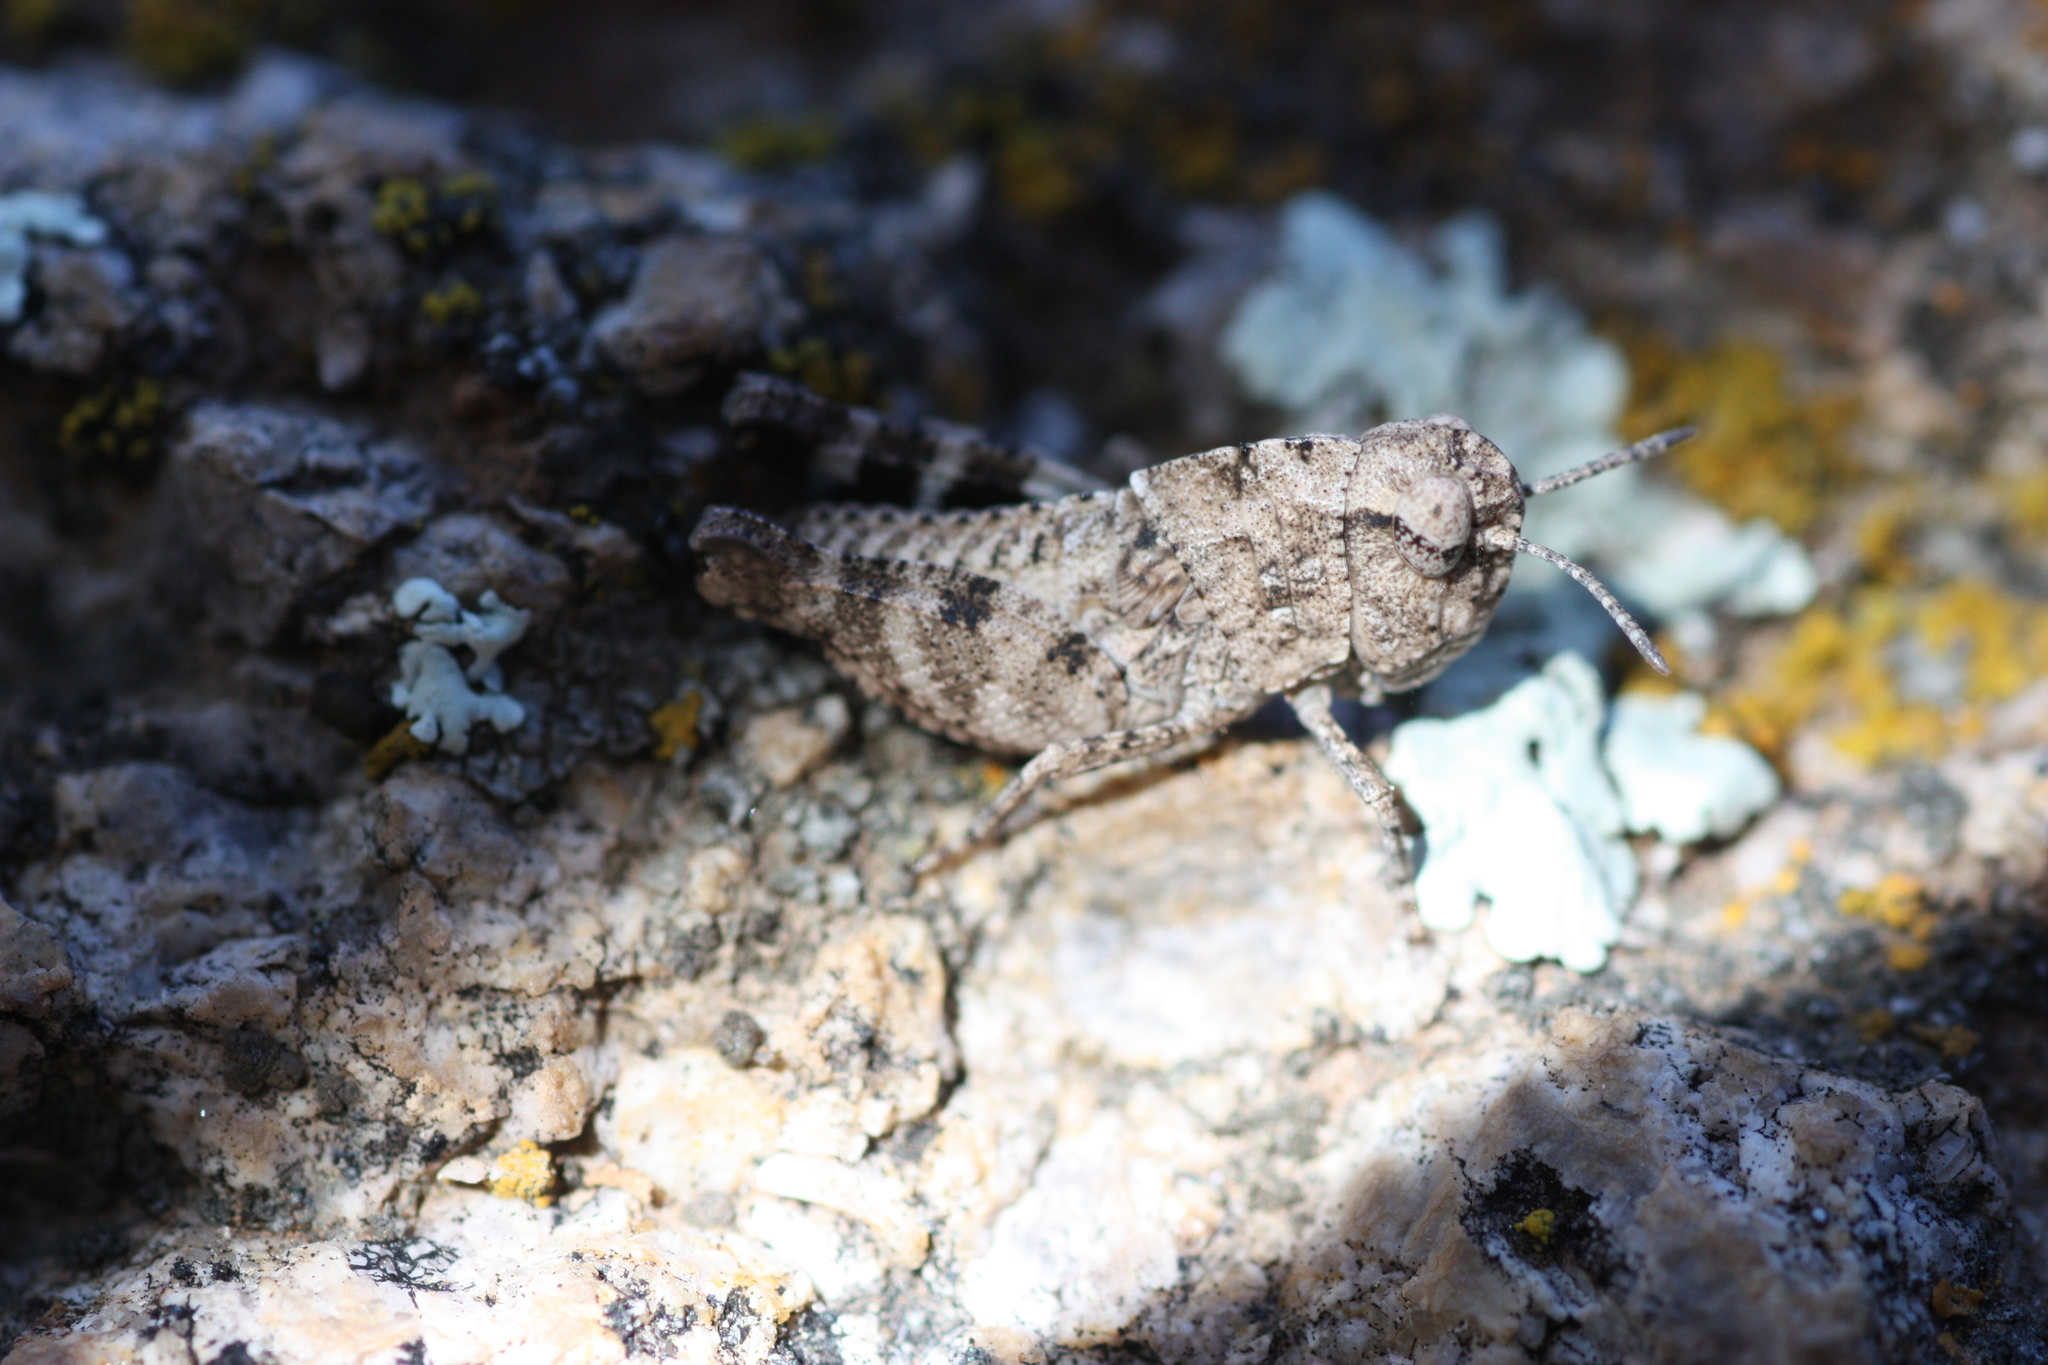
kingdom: Animalia
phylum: Arthropoda
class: Insecta
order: Orthoptera
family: Acrididae
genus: Arphia
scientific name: Arphia conspersa
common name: Speckle-winged rangeland grasshopper
